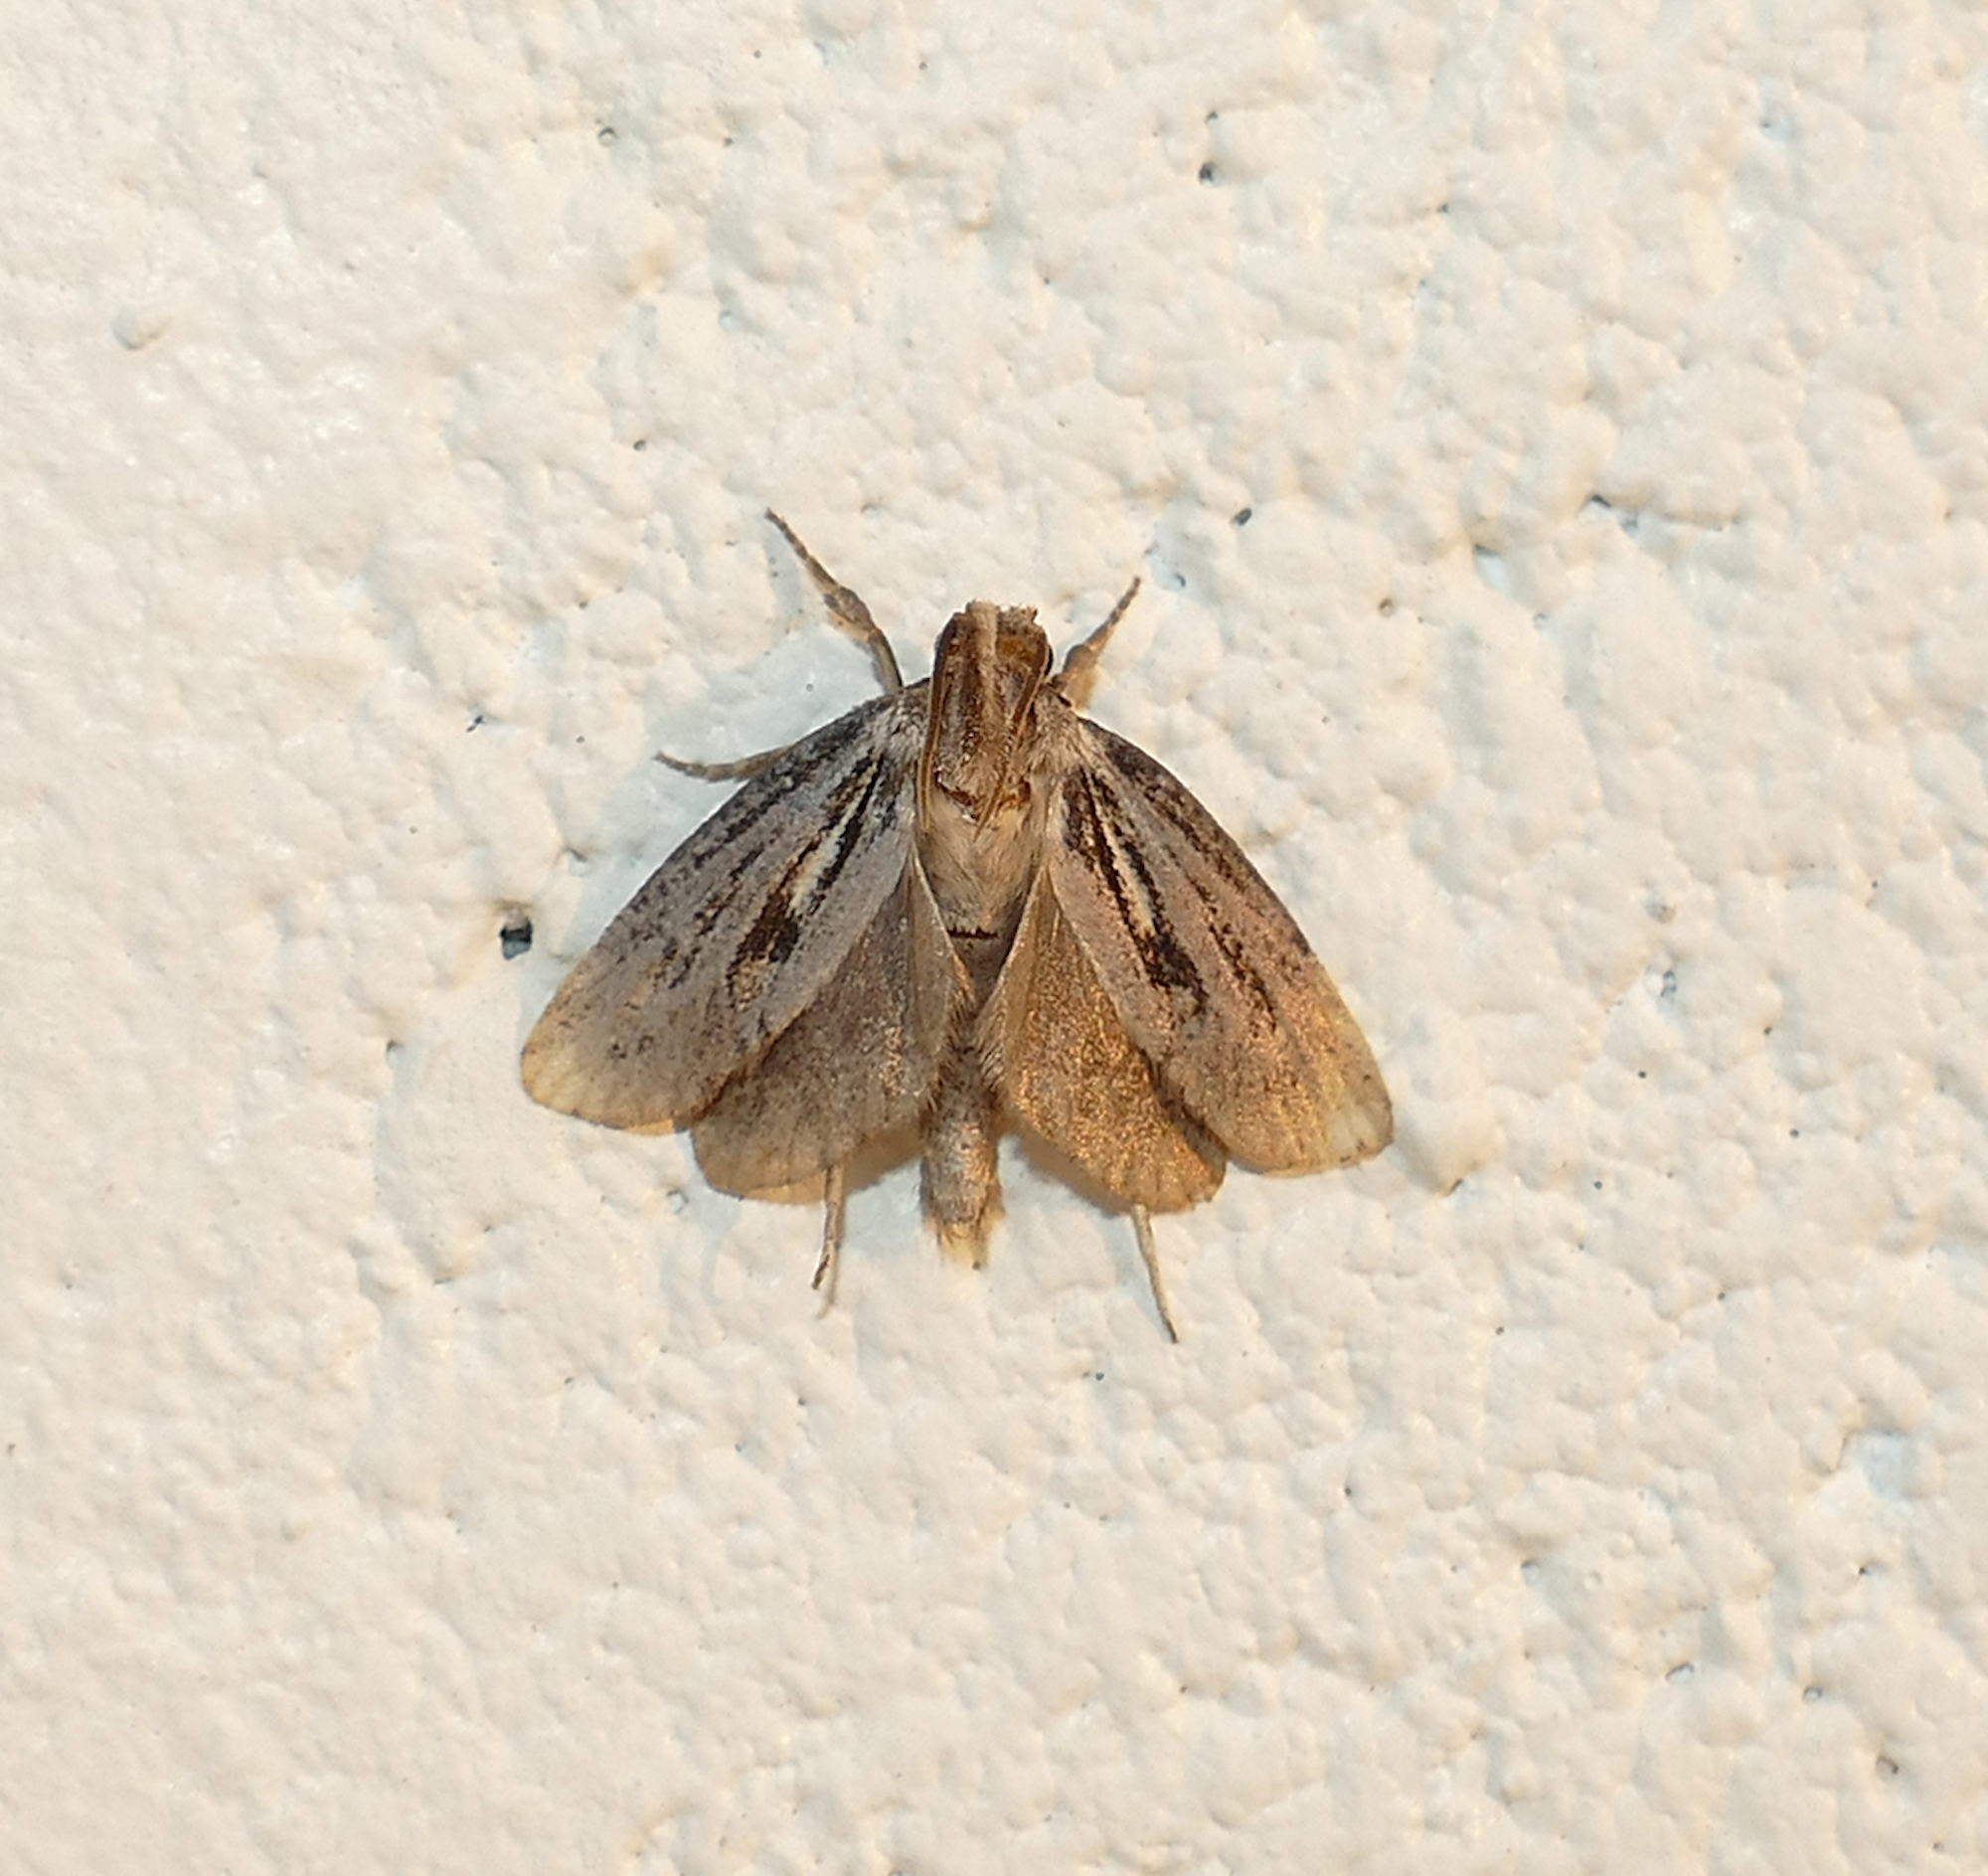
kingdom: Animalia
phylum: Arthropoda
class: Insecta
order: Lepidoptera
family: Tineidae
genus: Acrolophus
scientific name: Acrolophus popeanella
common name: Clemens' grass tubeworm moth
